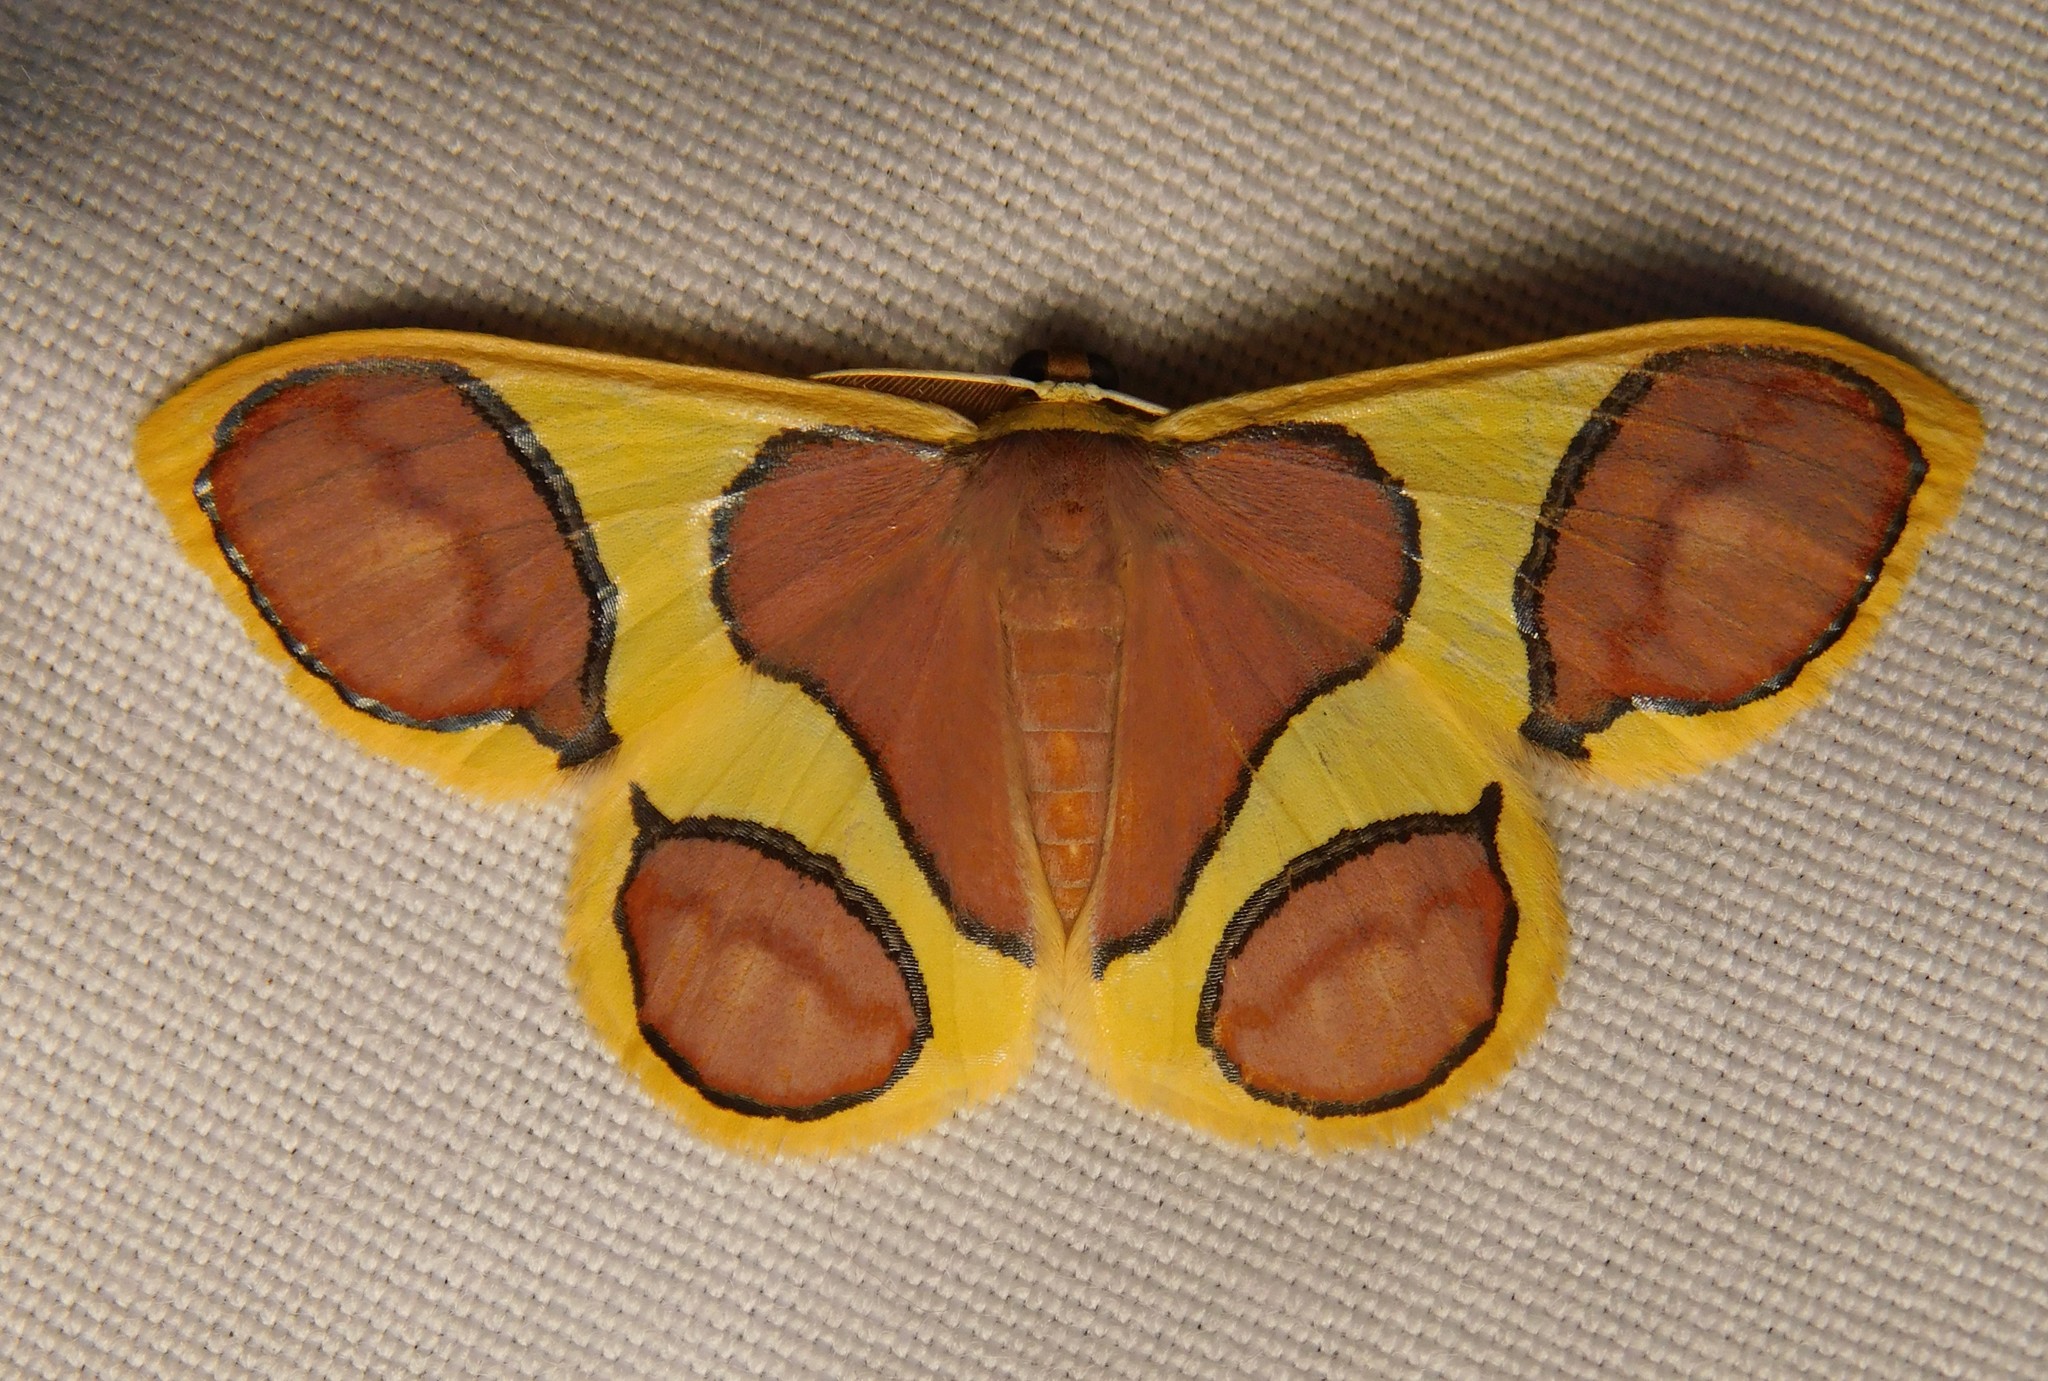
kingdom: Animalia
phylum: Arthropoda
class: Insecta
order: Lepidoptera
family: Geometridae
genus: Plutodes
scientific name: Plutodes pseudocyclaria
